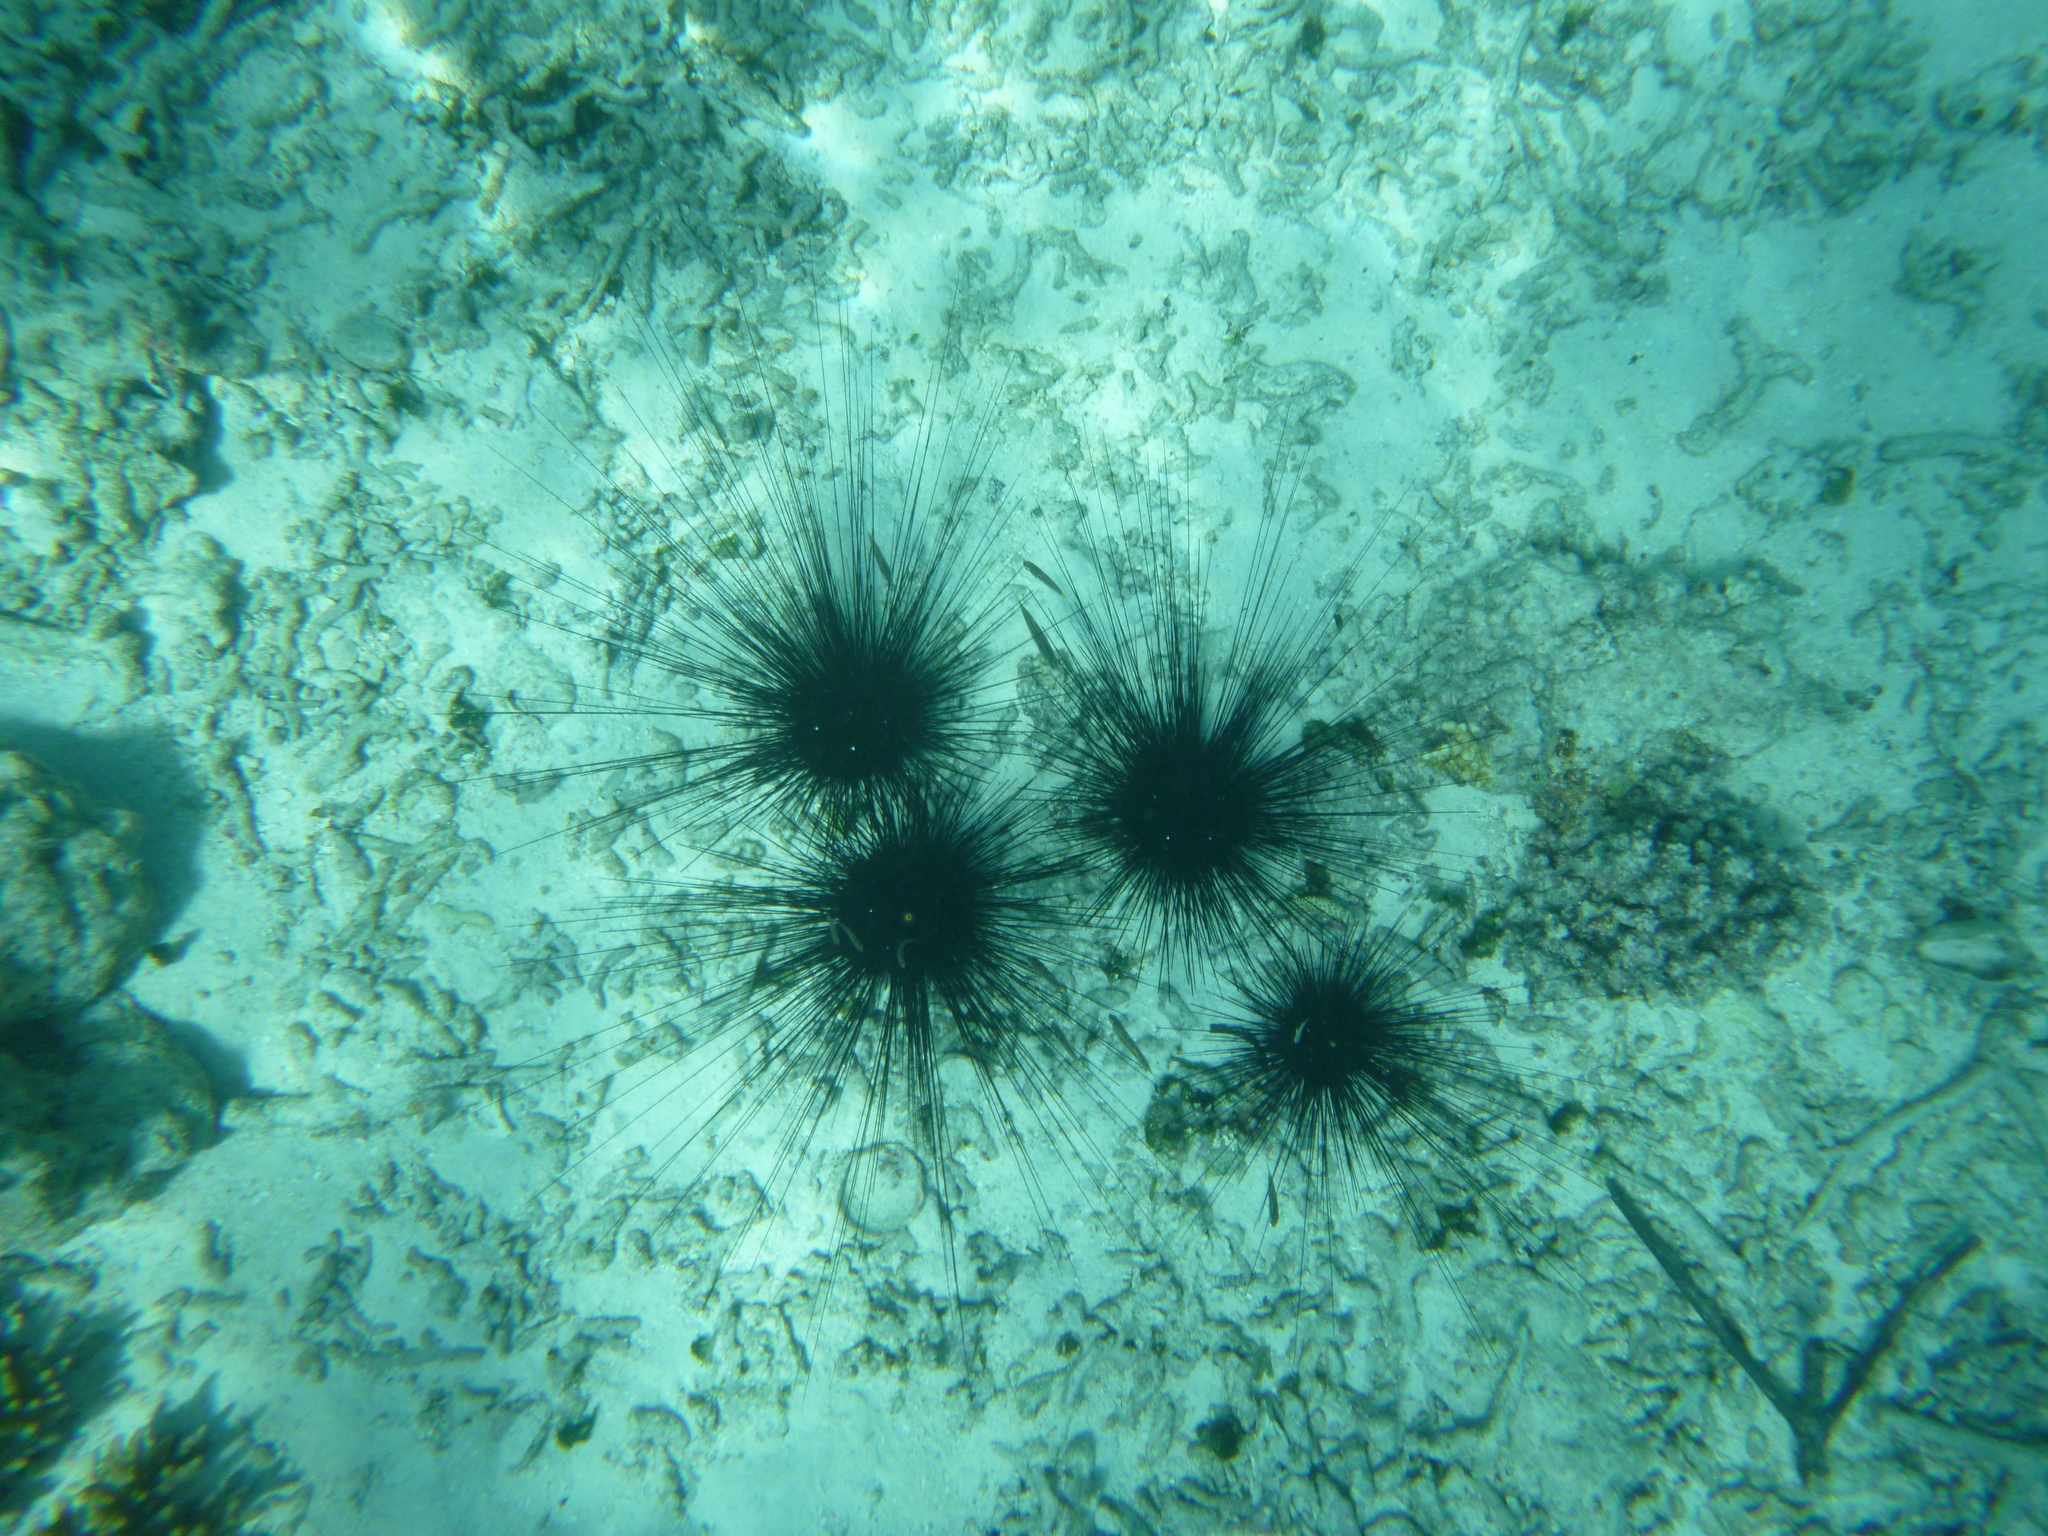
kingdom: Animalia
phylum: Echinodermata
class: Echinoidea
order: Diadematoida
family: Diadematidae
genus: Diadema
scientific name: Diadema setosum
